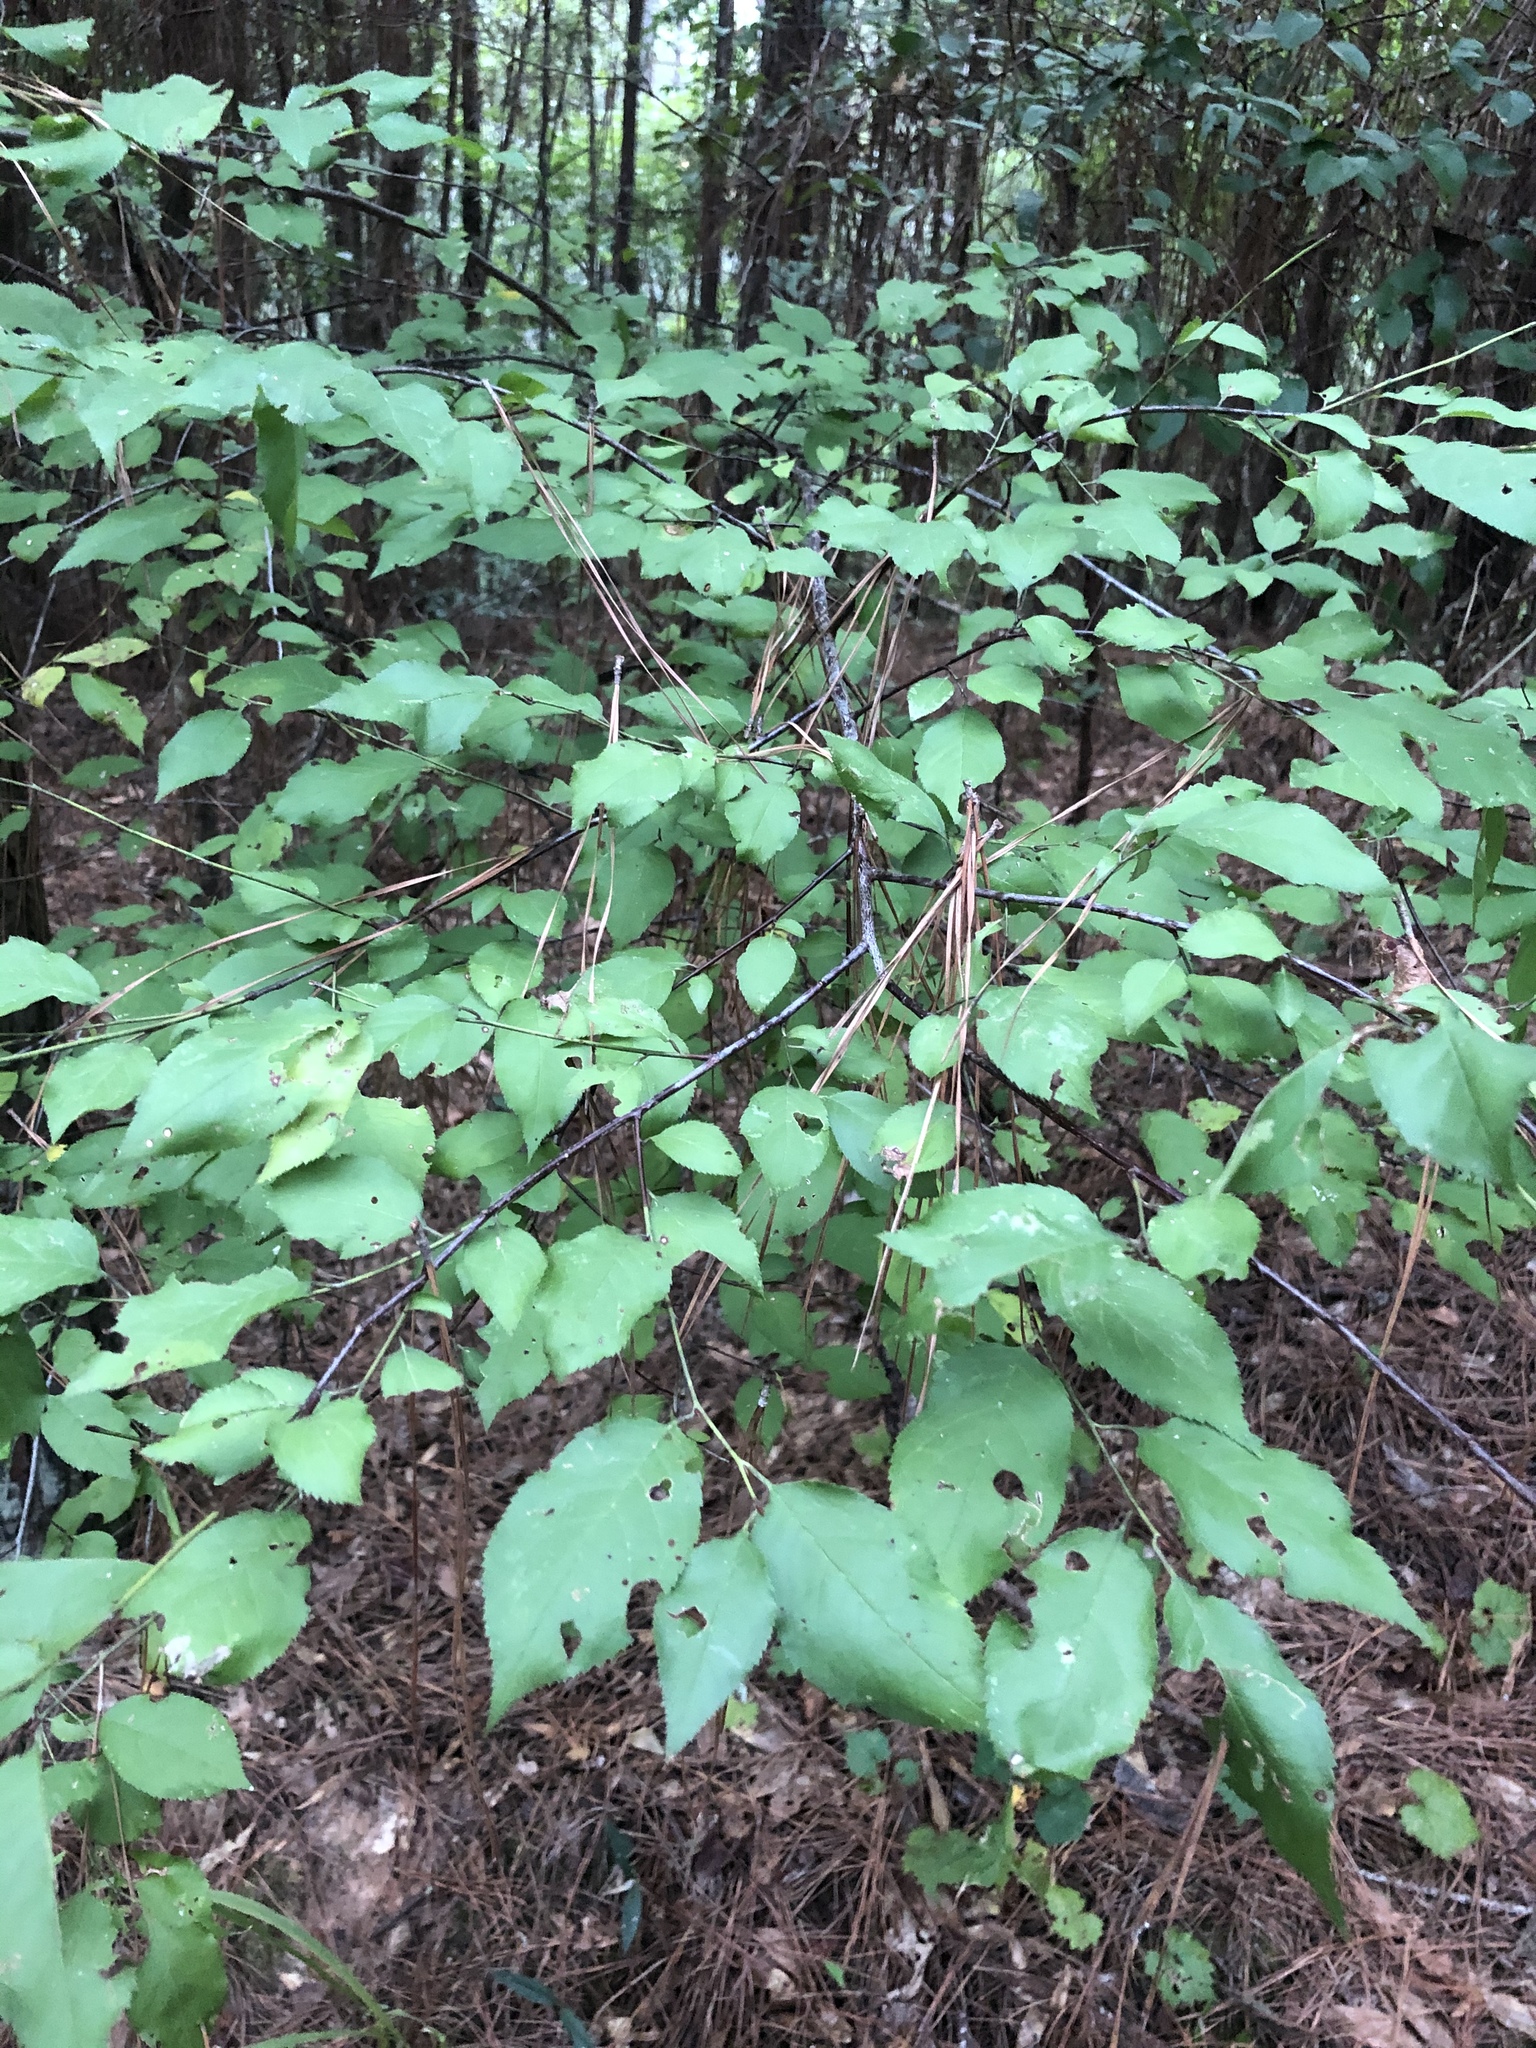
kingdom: Plantae
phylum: Tracheophyta
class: Magnoliopsida
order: Rosales
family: Rosaceae
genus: Prunus
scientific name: Prunus umbellata
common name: Allegheny plum
